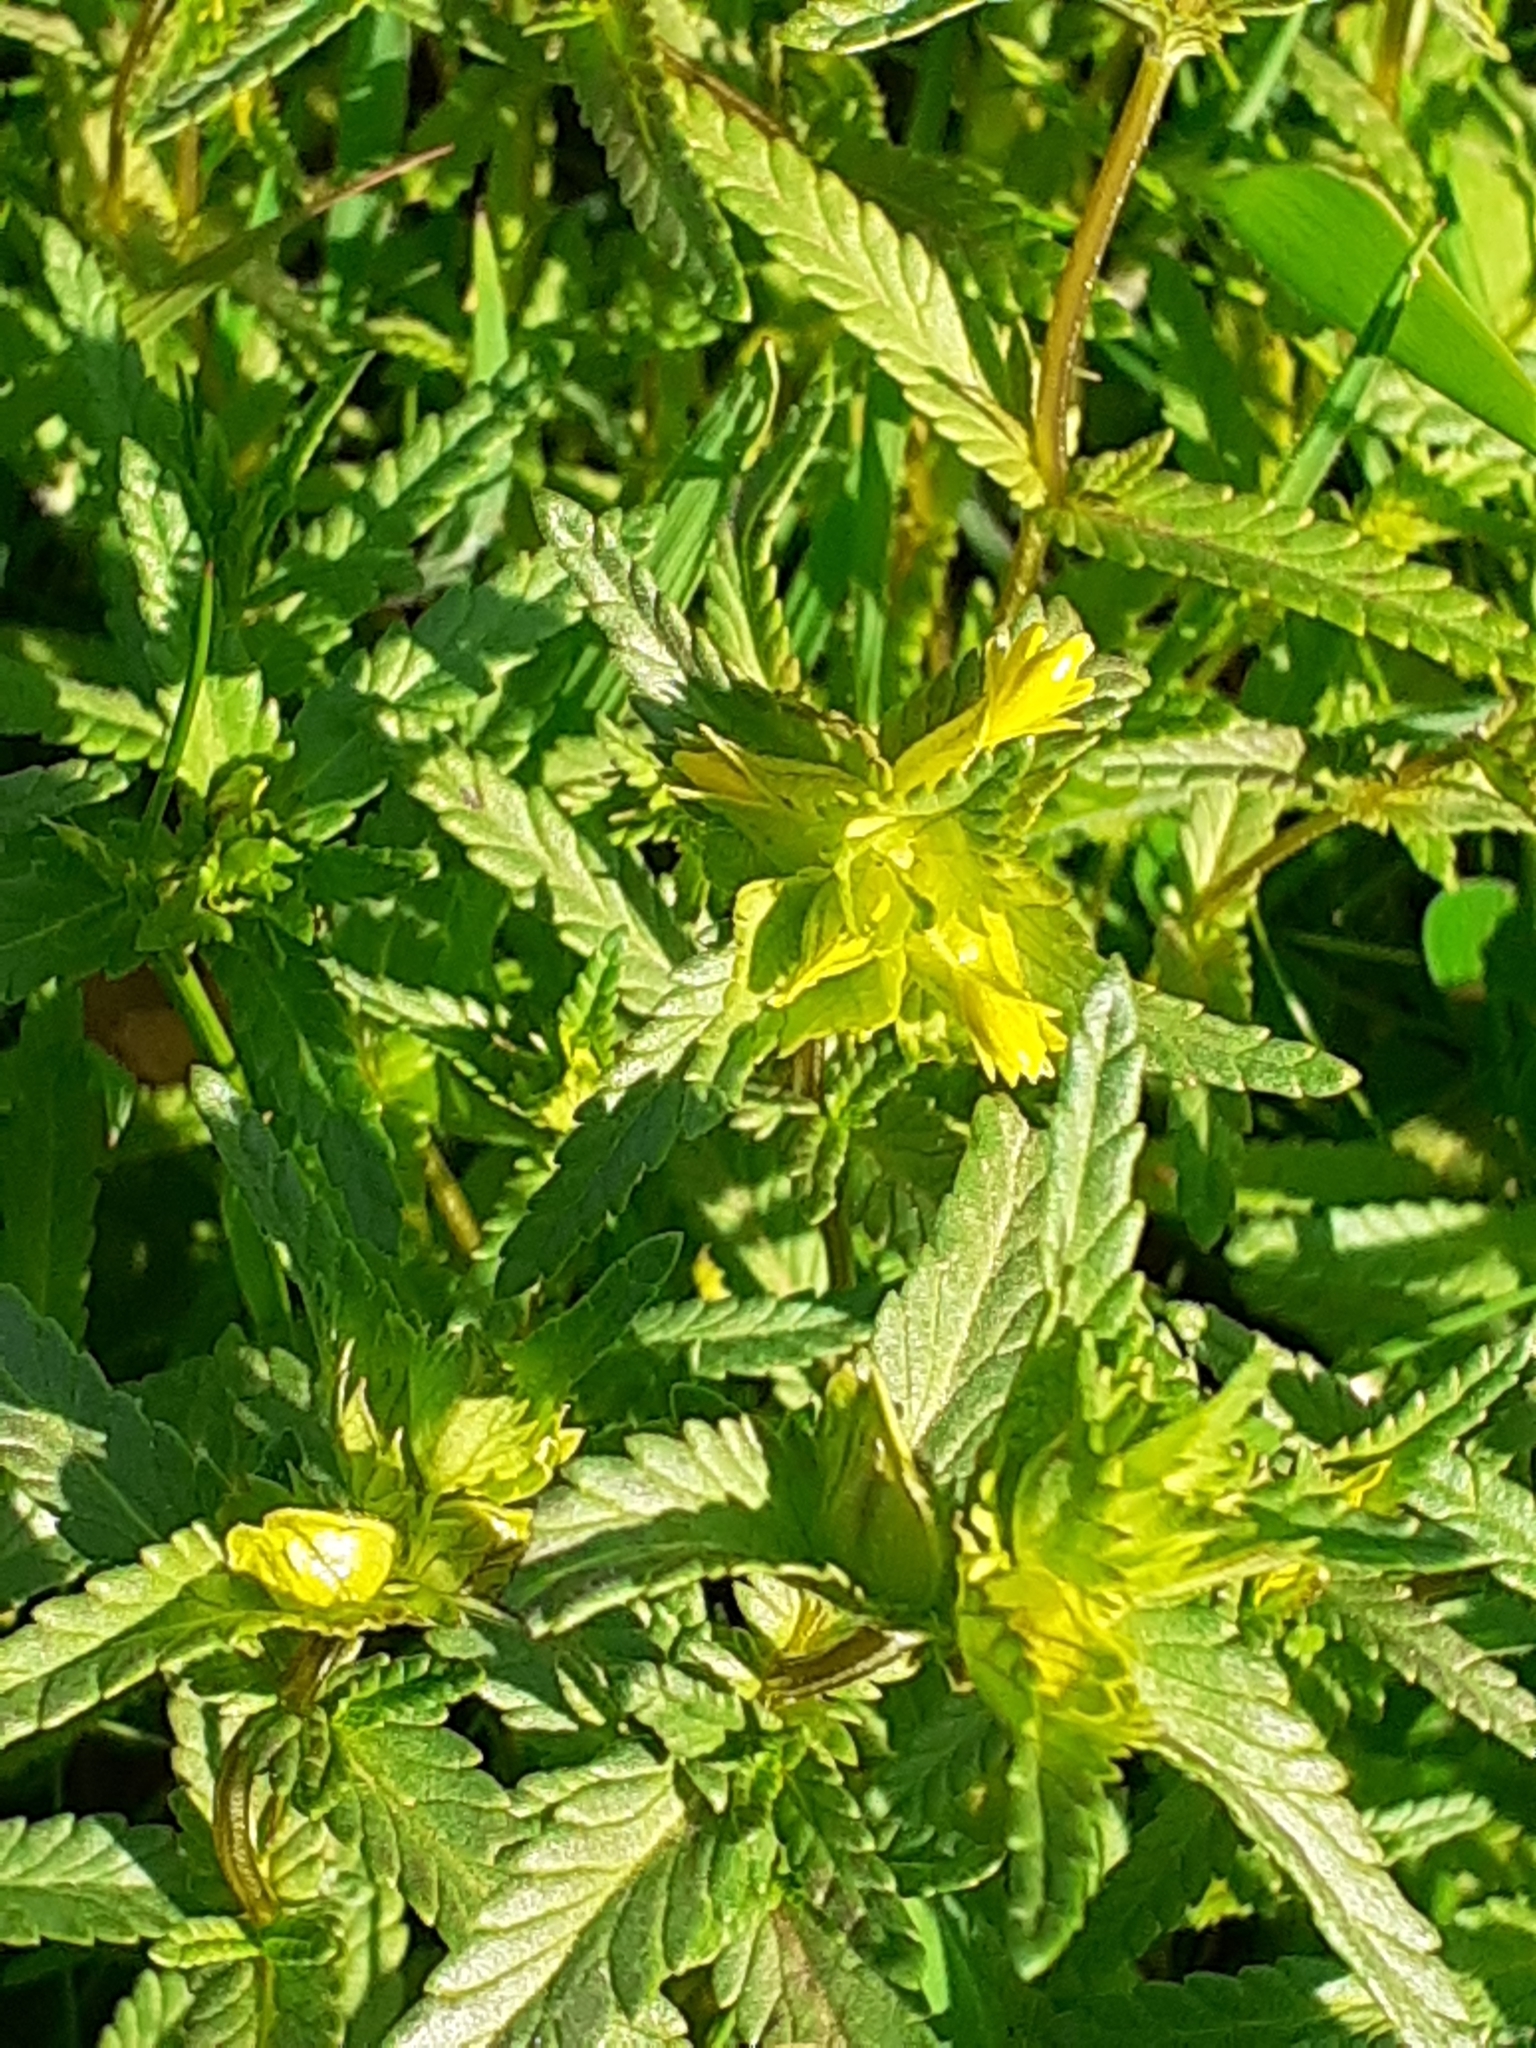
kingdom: Plantae
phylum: Tracheophyta
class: Magnoliopsida
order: Lamiales
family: Orobanchaceae
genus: Rhinanthus
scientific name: Rhinanthus minor
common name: Yellow-rattle
